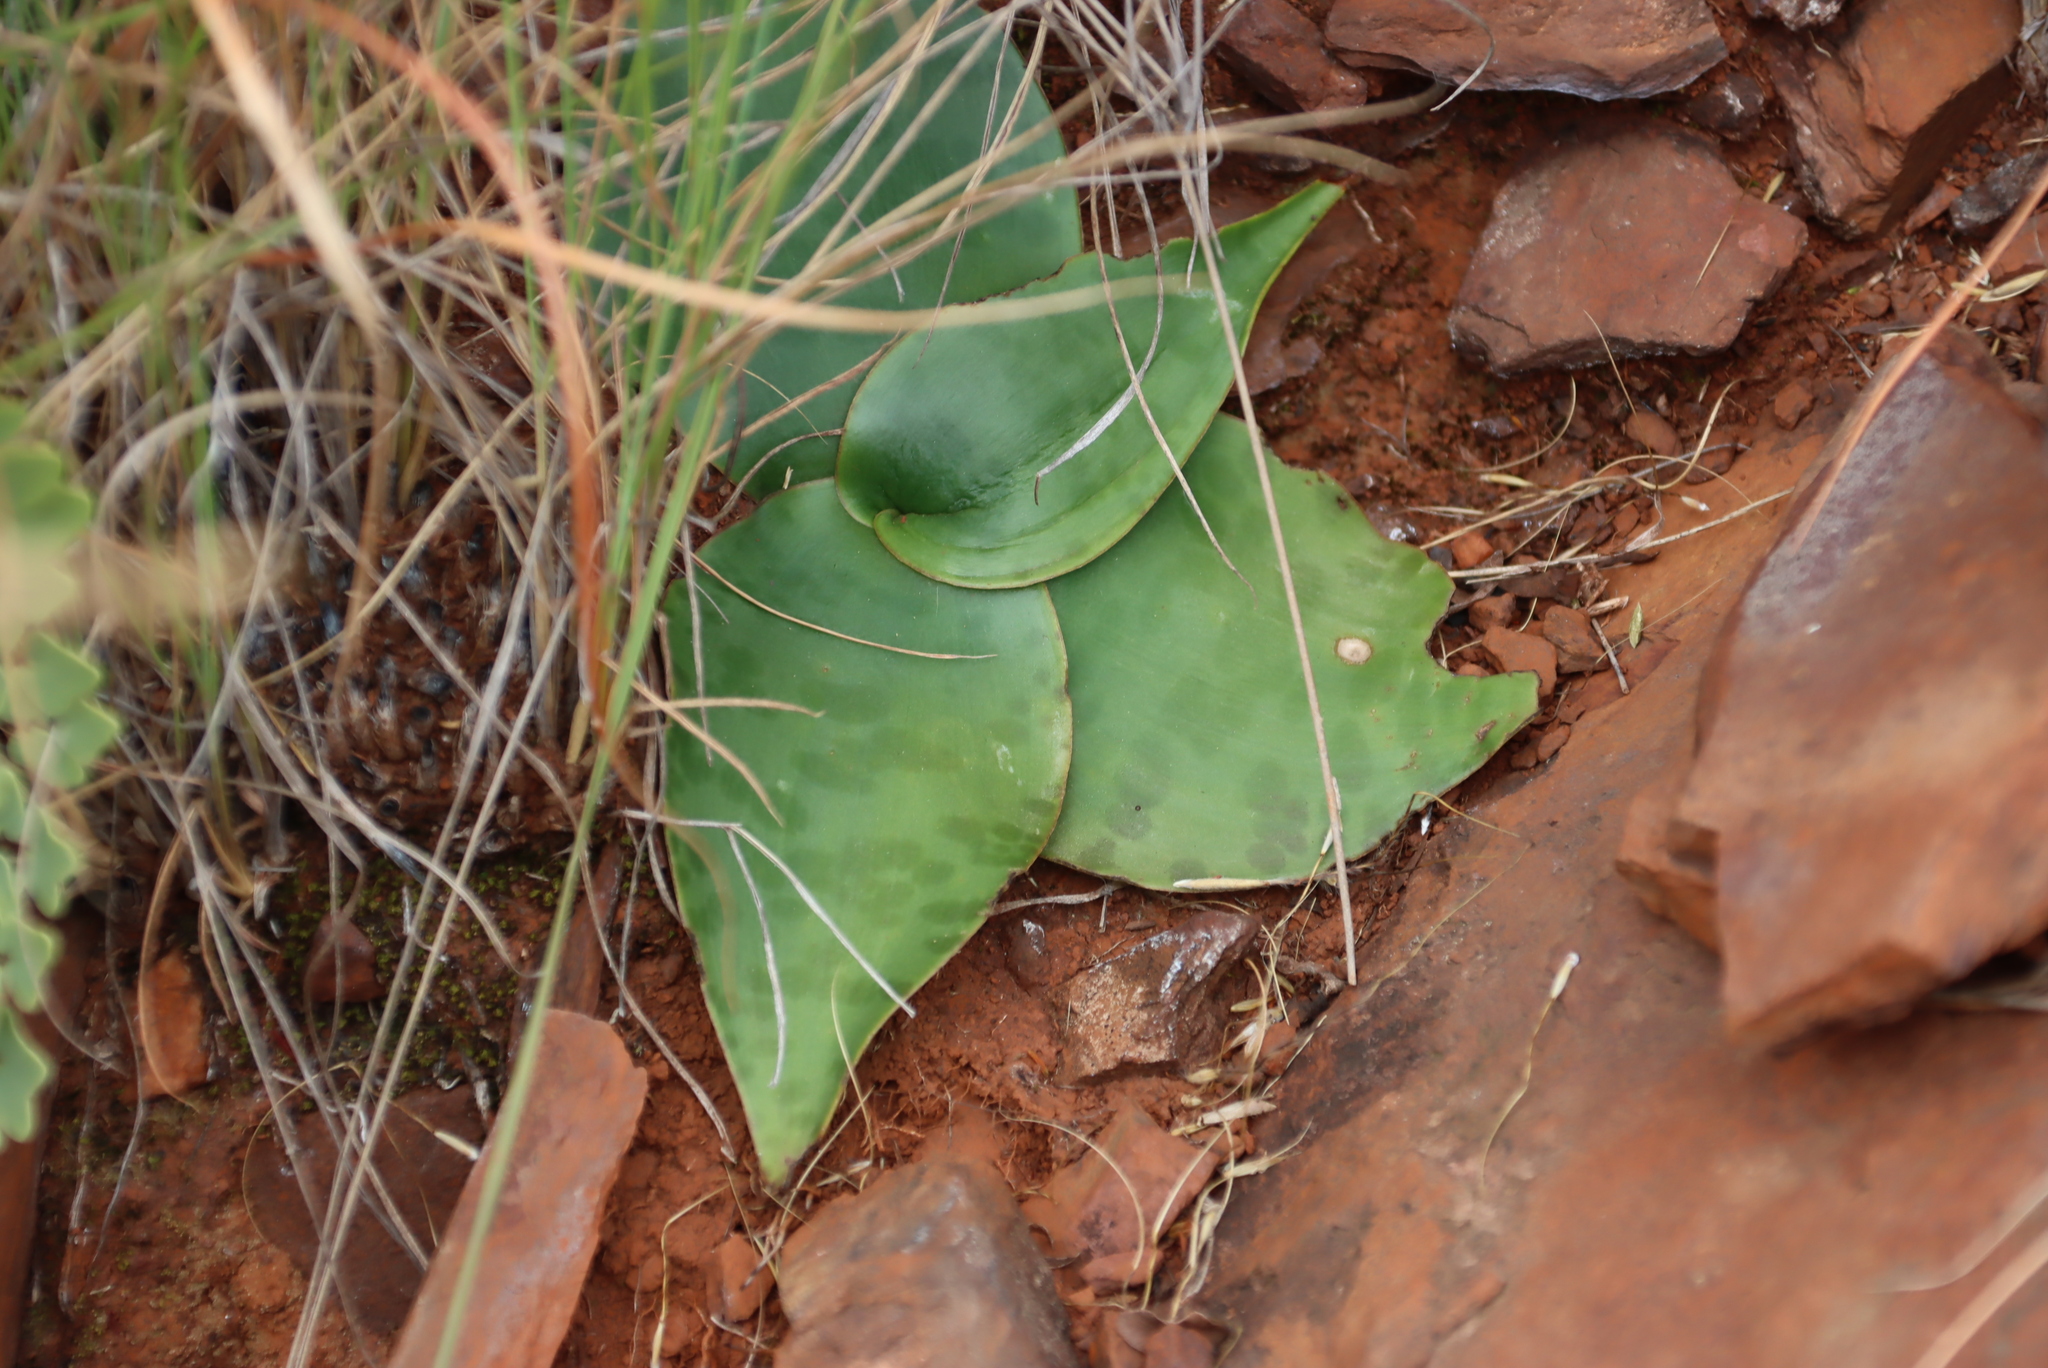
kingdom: Plantae
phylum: Tracheophyta
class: Liliopsida
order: Asparagales
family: Asparagaceae
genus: Ledebouria
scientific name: Ledebouria ovatifolia
